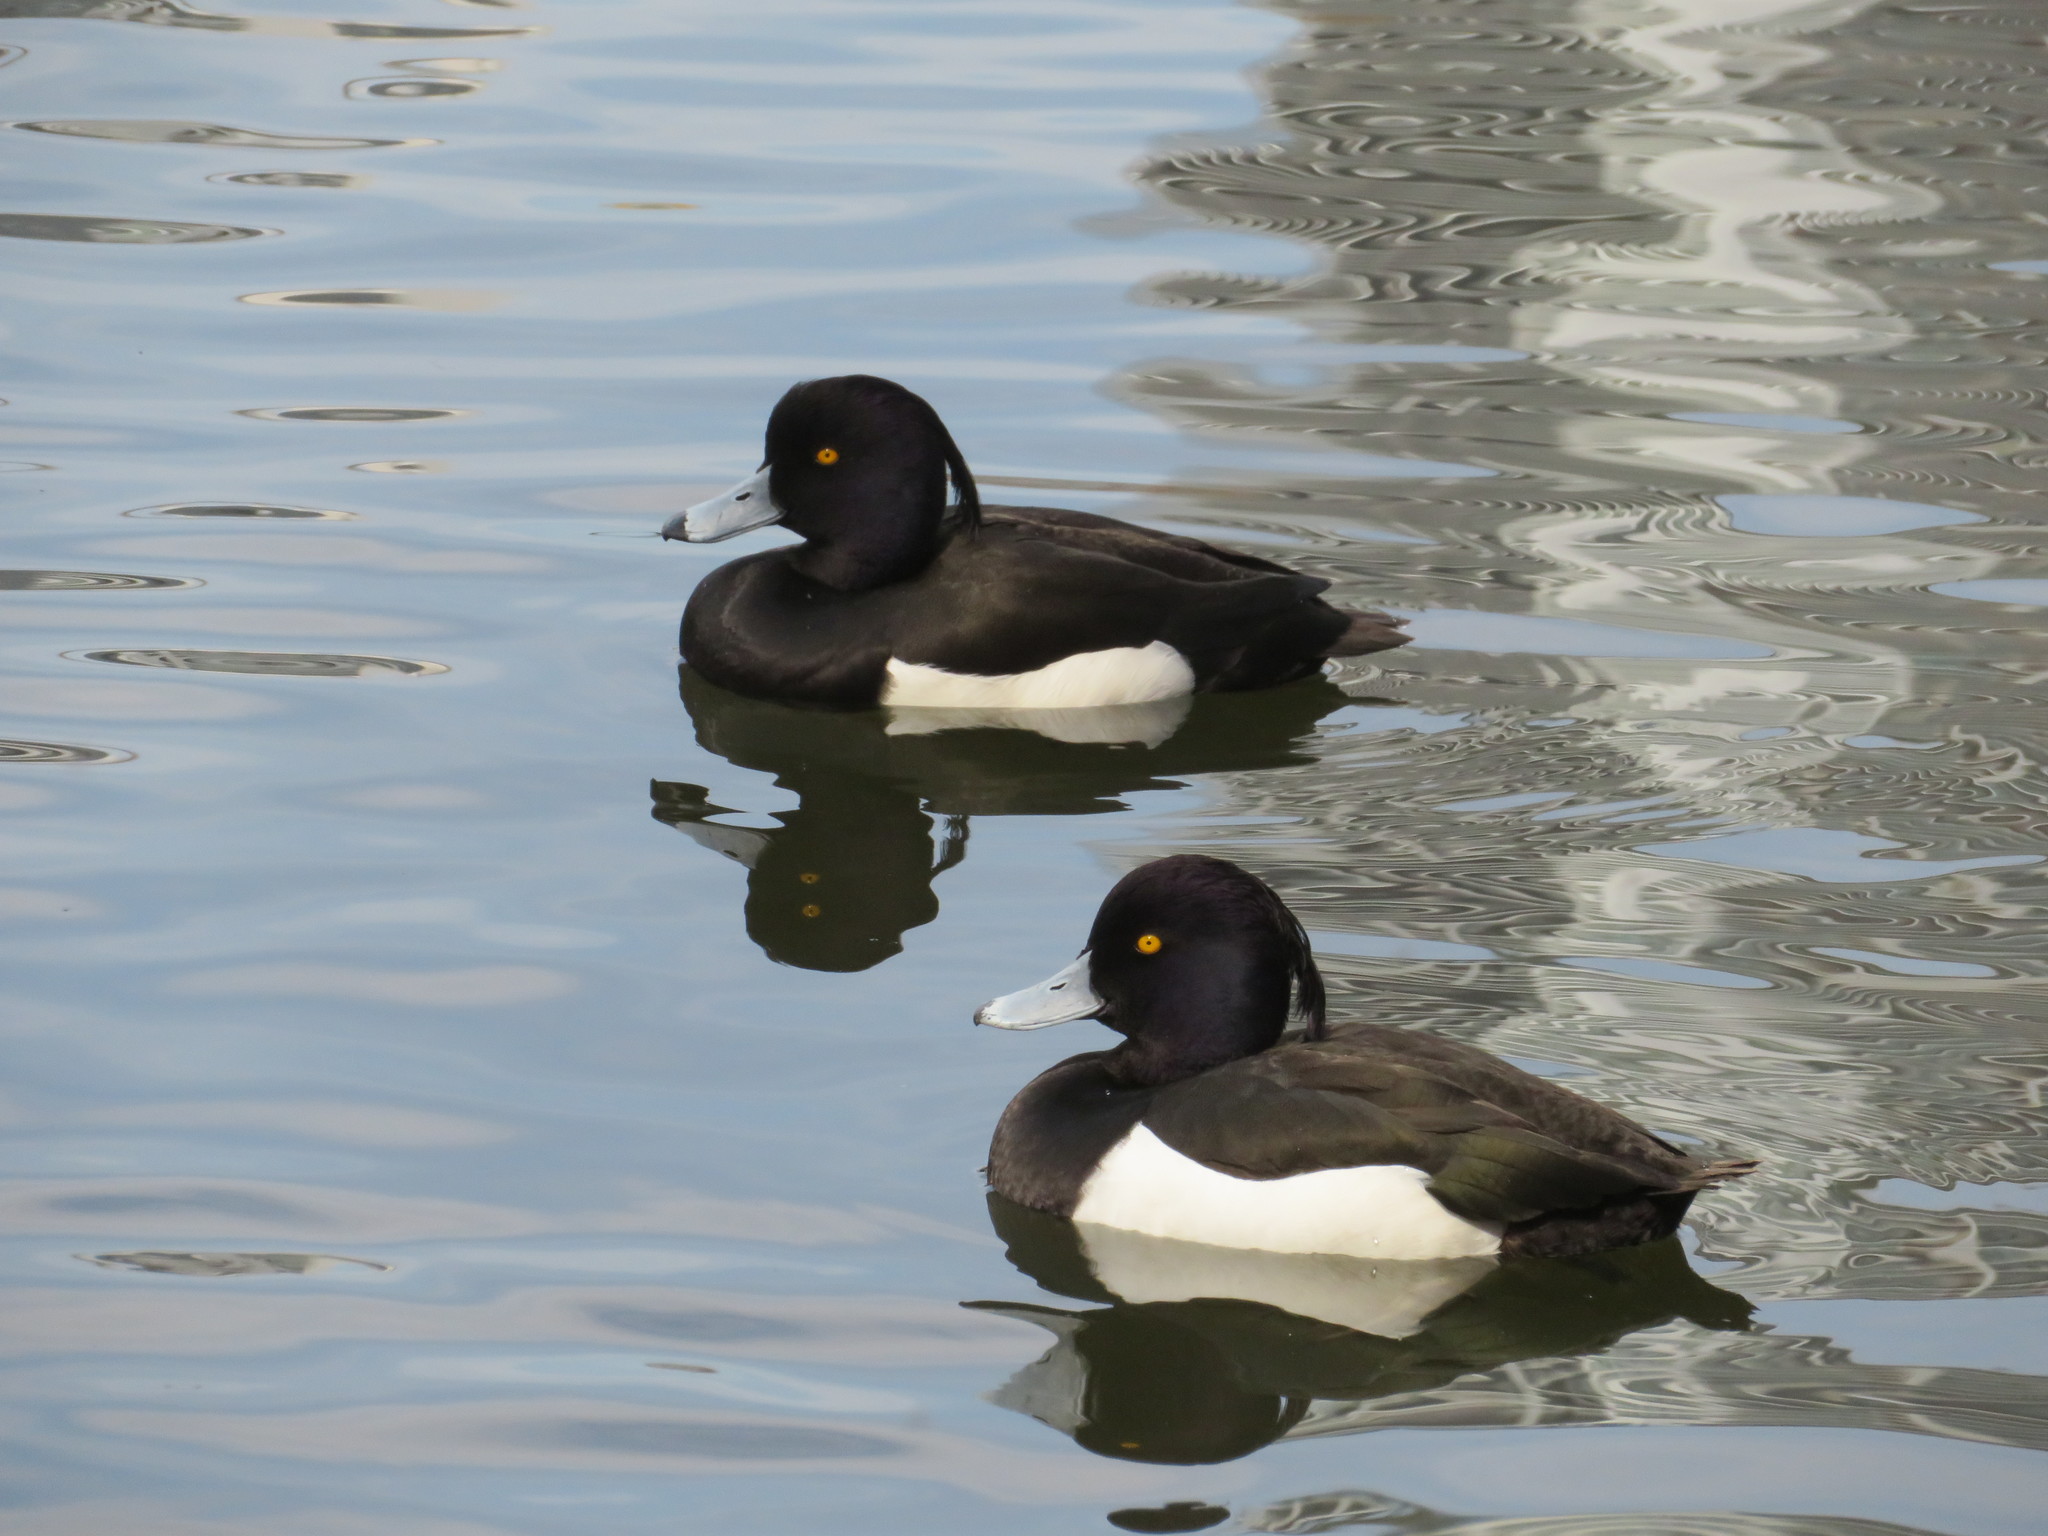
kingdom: Animalia
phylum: Chordata
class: Aves
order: Anseriformes
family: Anatidae
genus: Aythya
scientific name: Aythya fuligula
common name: Tufted duck
